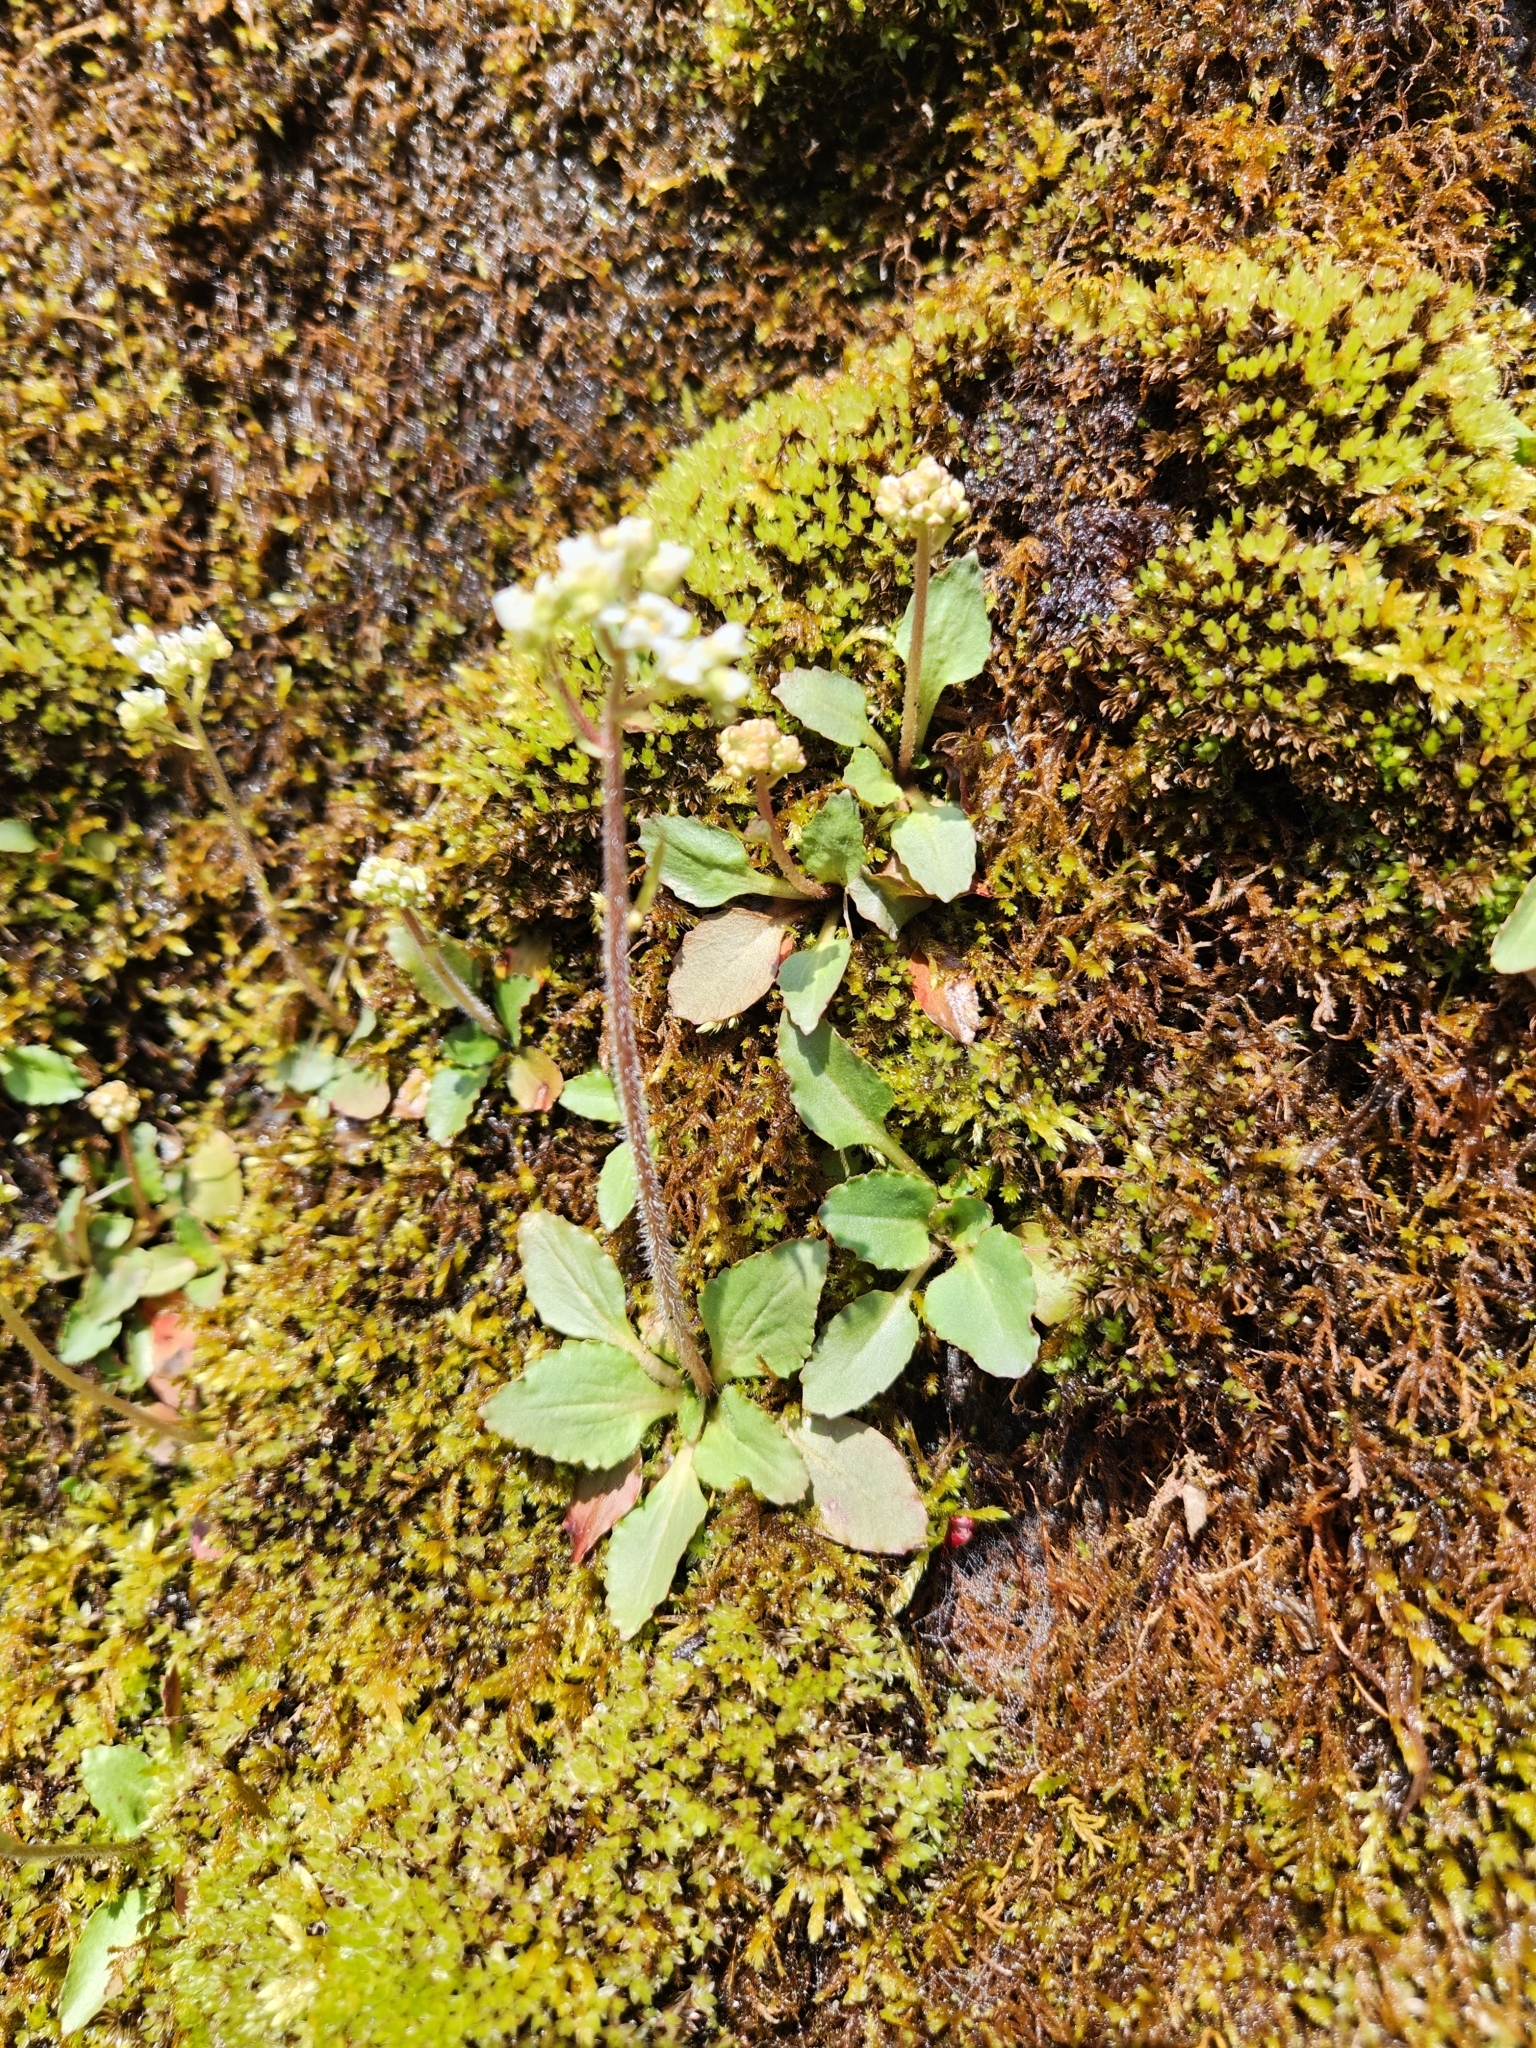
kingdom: Plantae
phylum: Tracheophyta
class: Magnoliopsida
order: Saxifragales
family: Saxifragaceae
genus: Micranthes
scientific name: Micranthes virginiensis
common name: Early saxifrage
